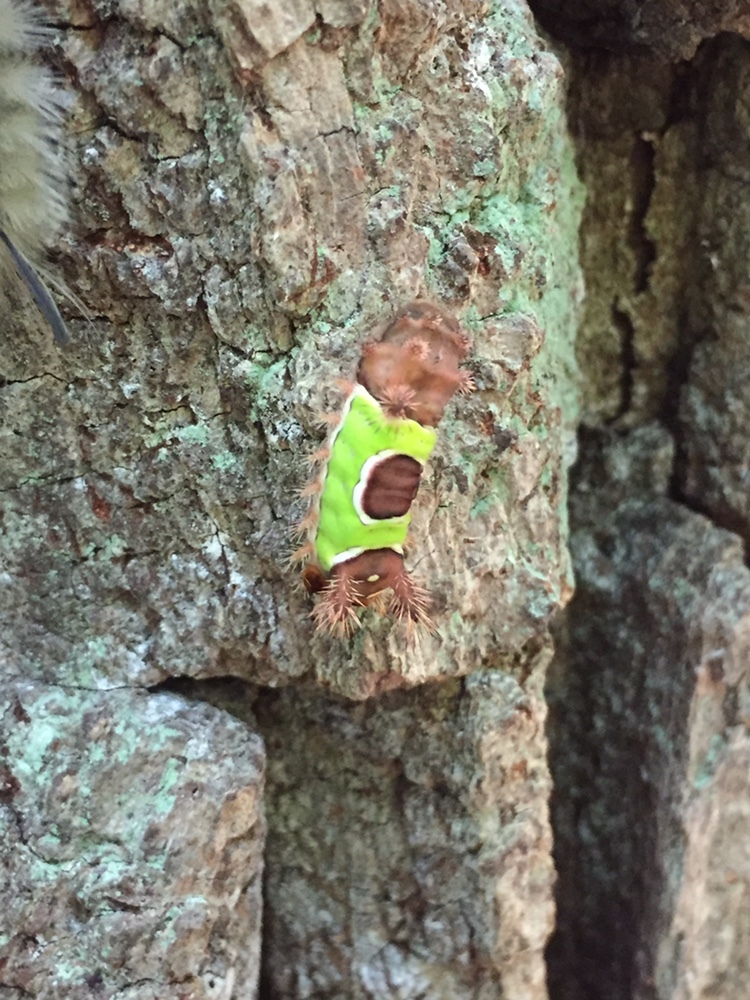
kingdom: Animalia
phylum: Arthropoda
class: Insecta
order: Lepidoptera
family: Limacodidae
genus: Acharia
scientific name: Acharia stimulea
